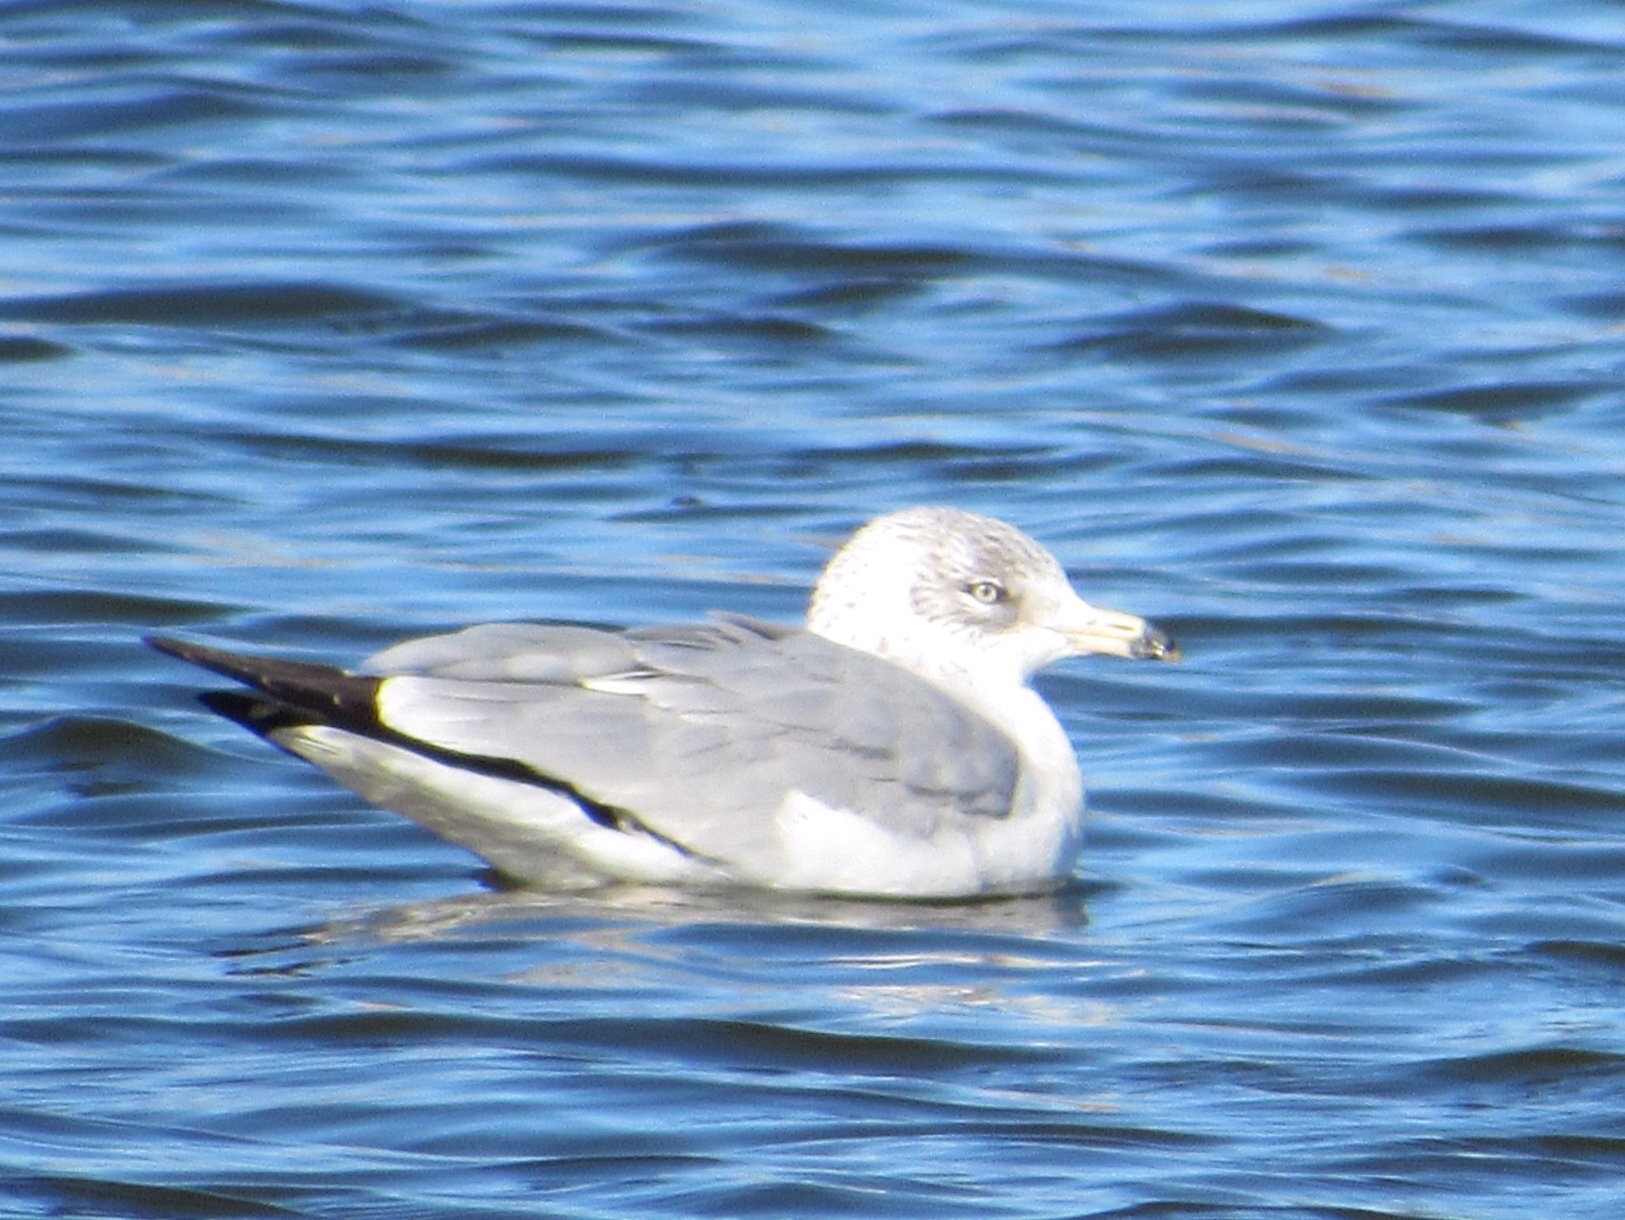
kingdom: Animalia
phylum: Chordata
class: Aves
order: Charadriiformes
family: Laridae
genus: Larus
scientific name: Larus delawarensis
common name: Ring-billed gull
